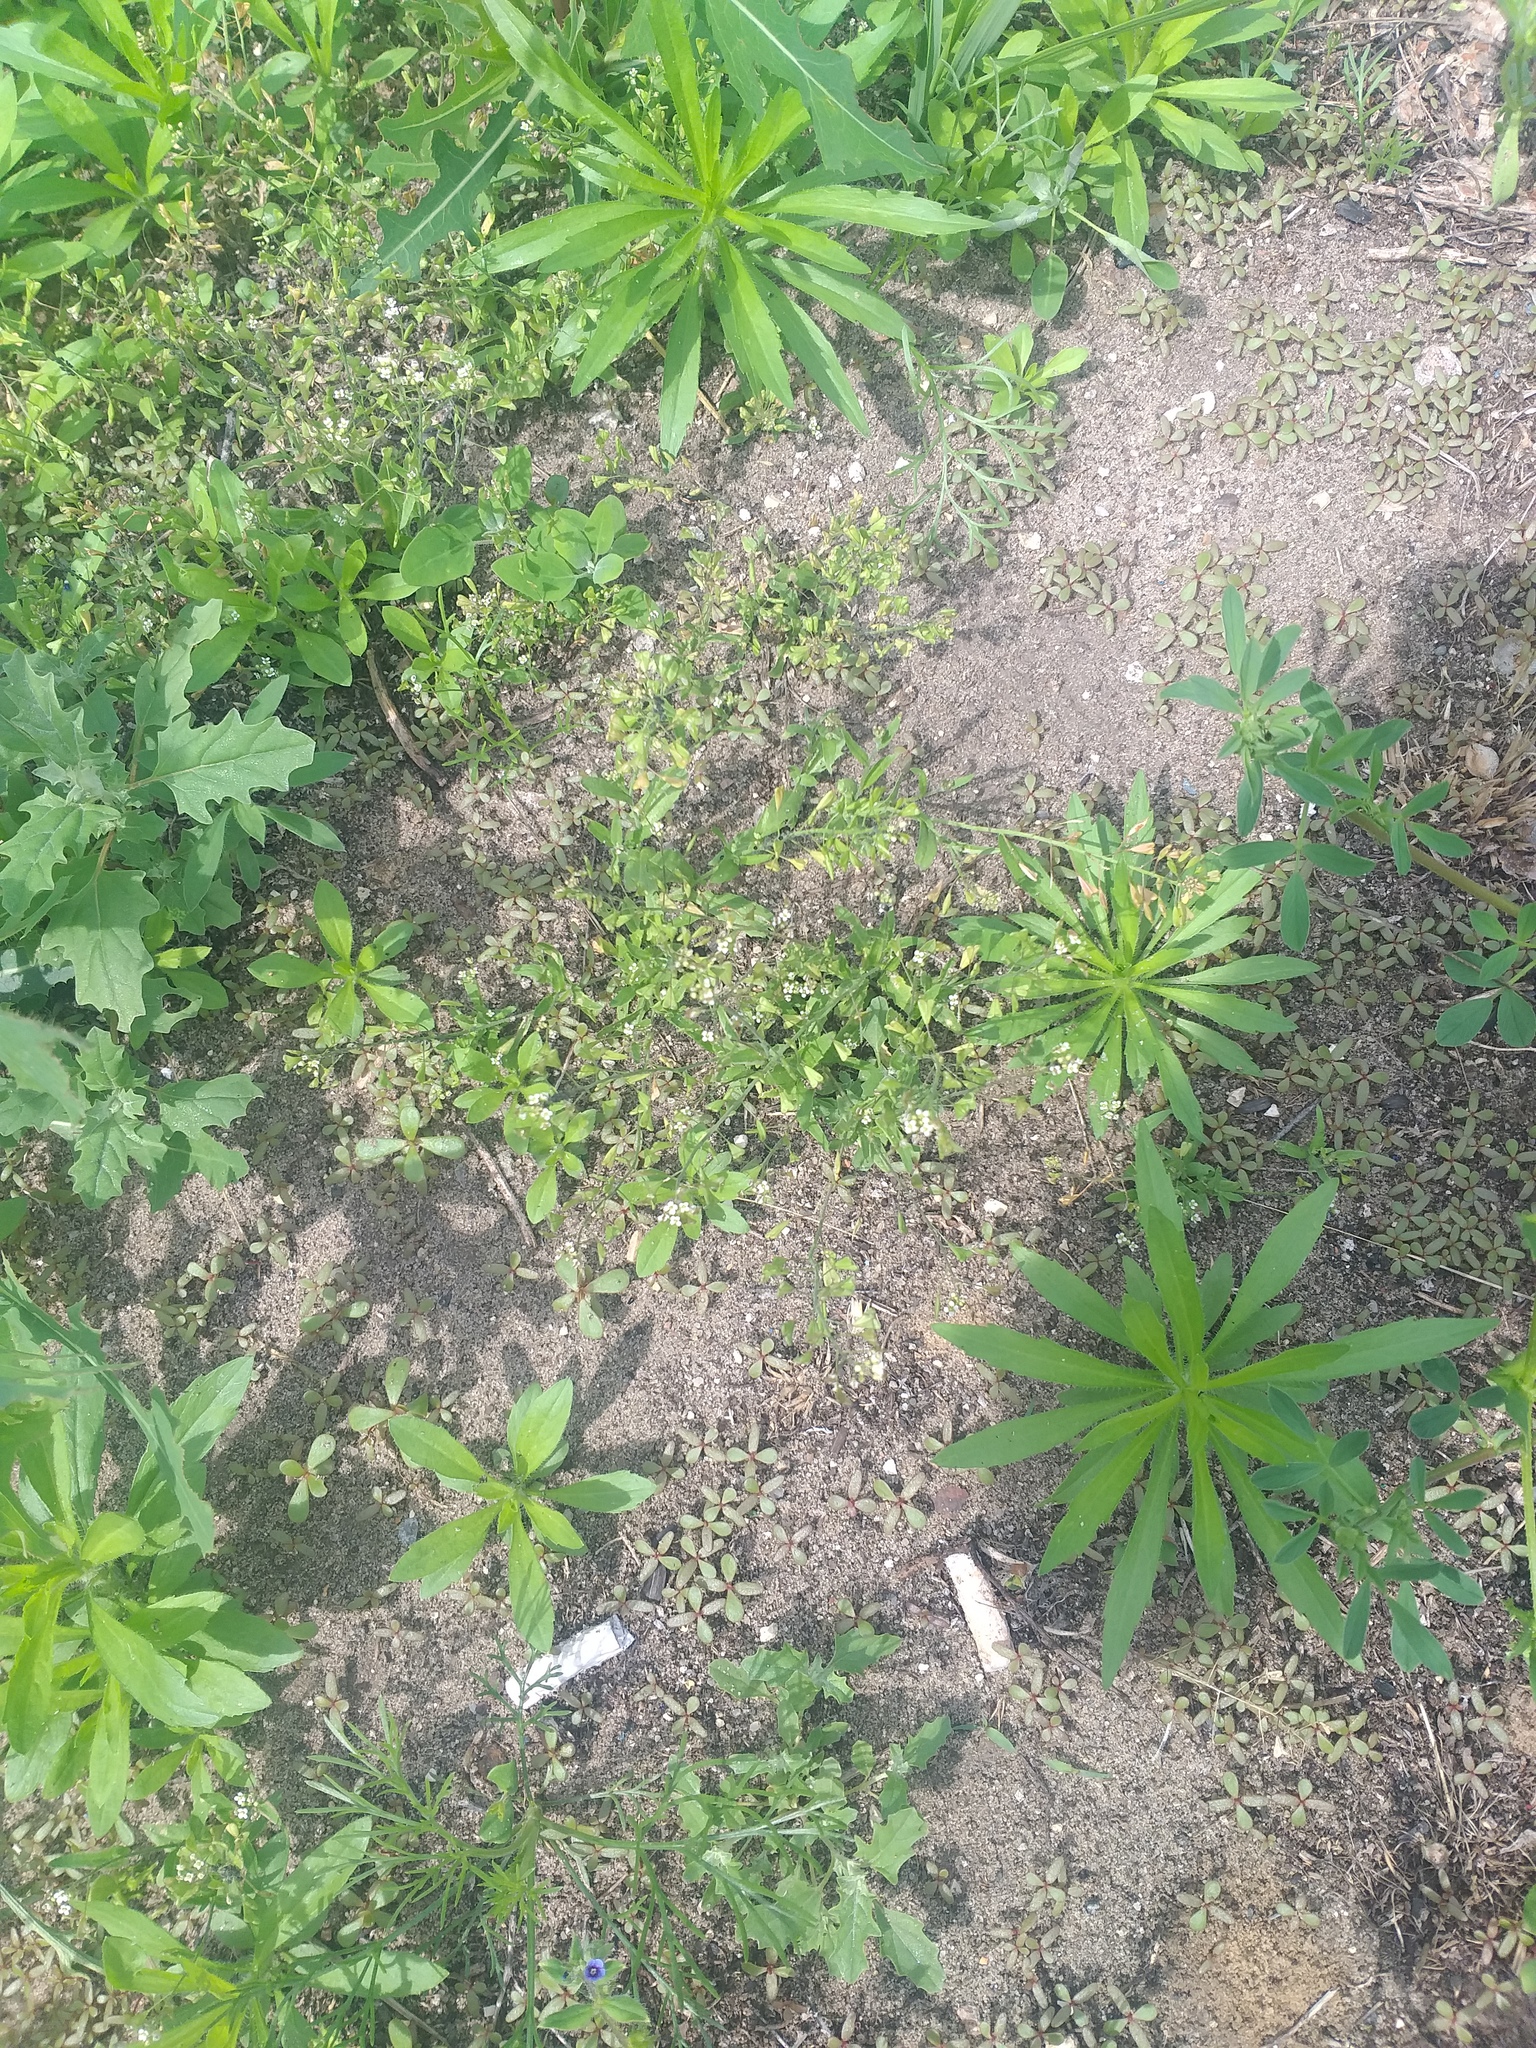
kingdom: Plantae
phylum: Tracheophyta
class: Magnoliopsida
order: Brassicales
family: Brassicaceae
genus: Capsella
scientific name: Capsella bursa-pastoris
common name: Shepherd's purse
